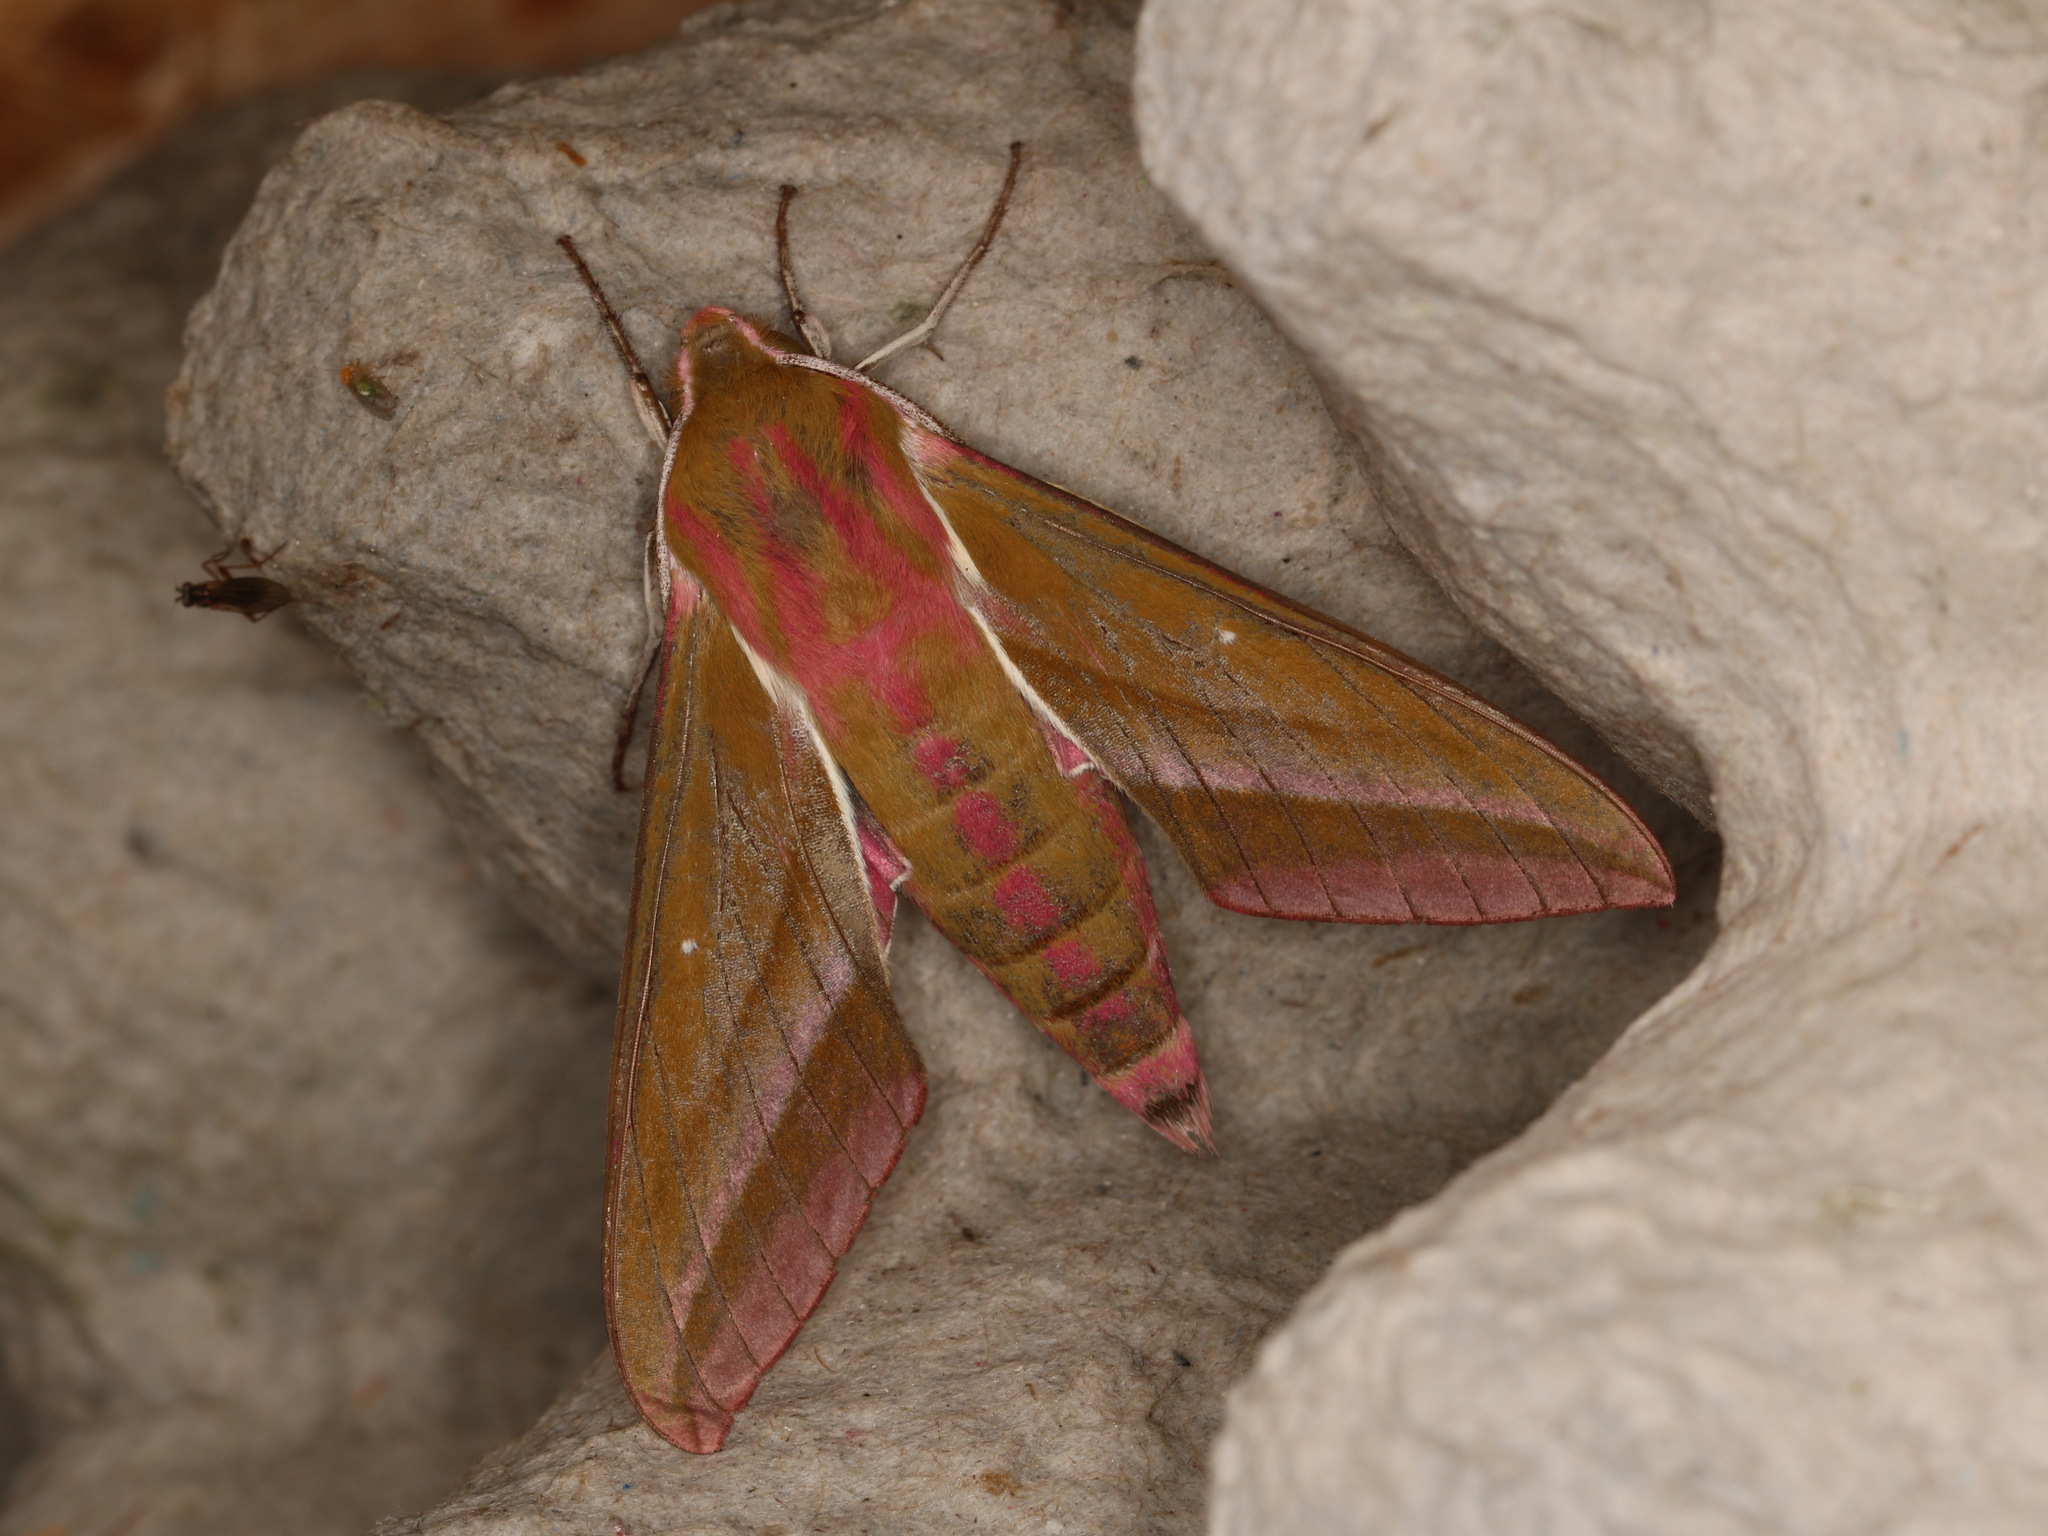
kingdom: Animalia
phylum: Arthropoda
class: Insecta
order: Lepidoptera
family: Sphingidae
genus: Deilephila
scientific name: Deilephila elpenor
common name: Elephant hawk-moth
